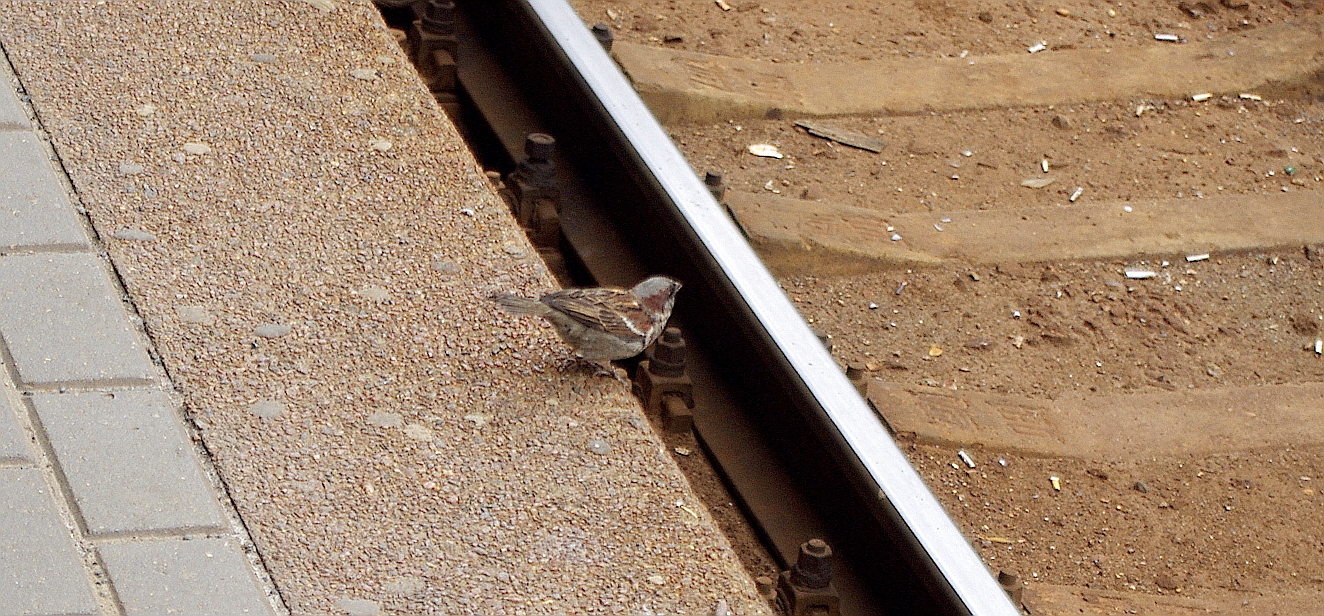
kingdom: Animalia
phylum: Chordata
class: Aves
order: Passeriformes
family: Passeridae
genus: Passer
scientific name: Passer domesticus
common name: House sparrow
